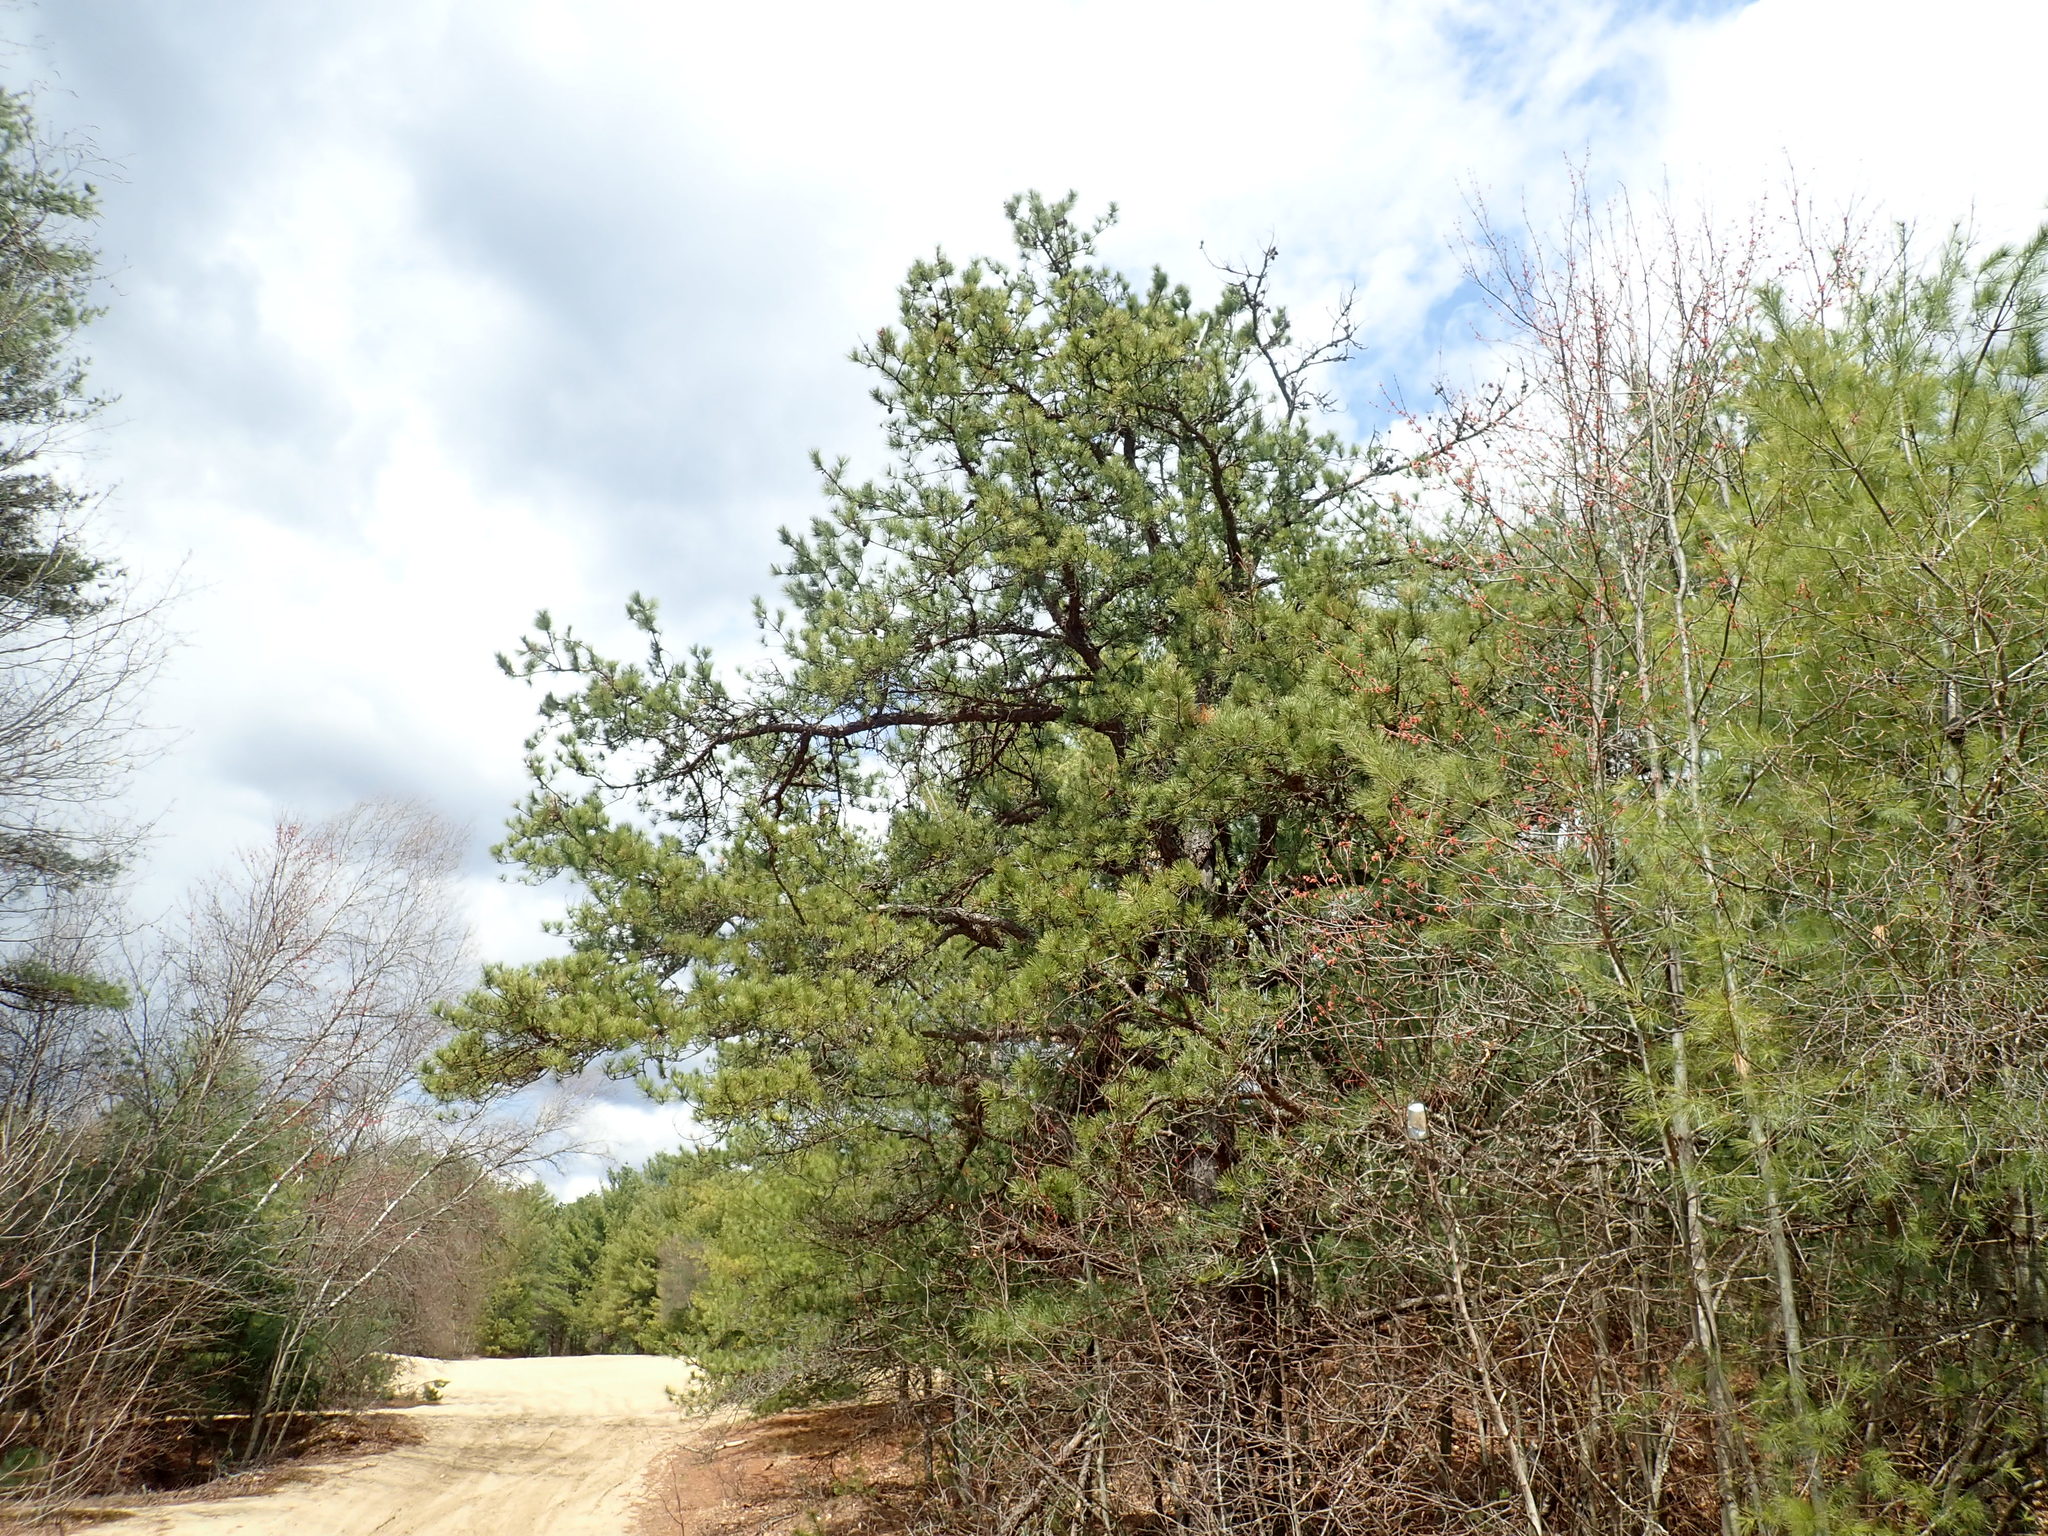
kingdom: Plantae
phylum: Tracheophyta
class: Pinopsida
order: Pinales
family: Pinaceae
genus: Pinus
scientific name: Pinus rigida
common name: Pitch pine
